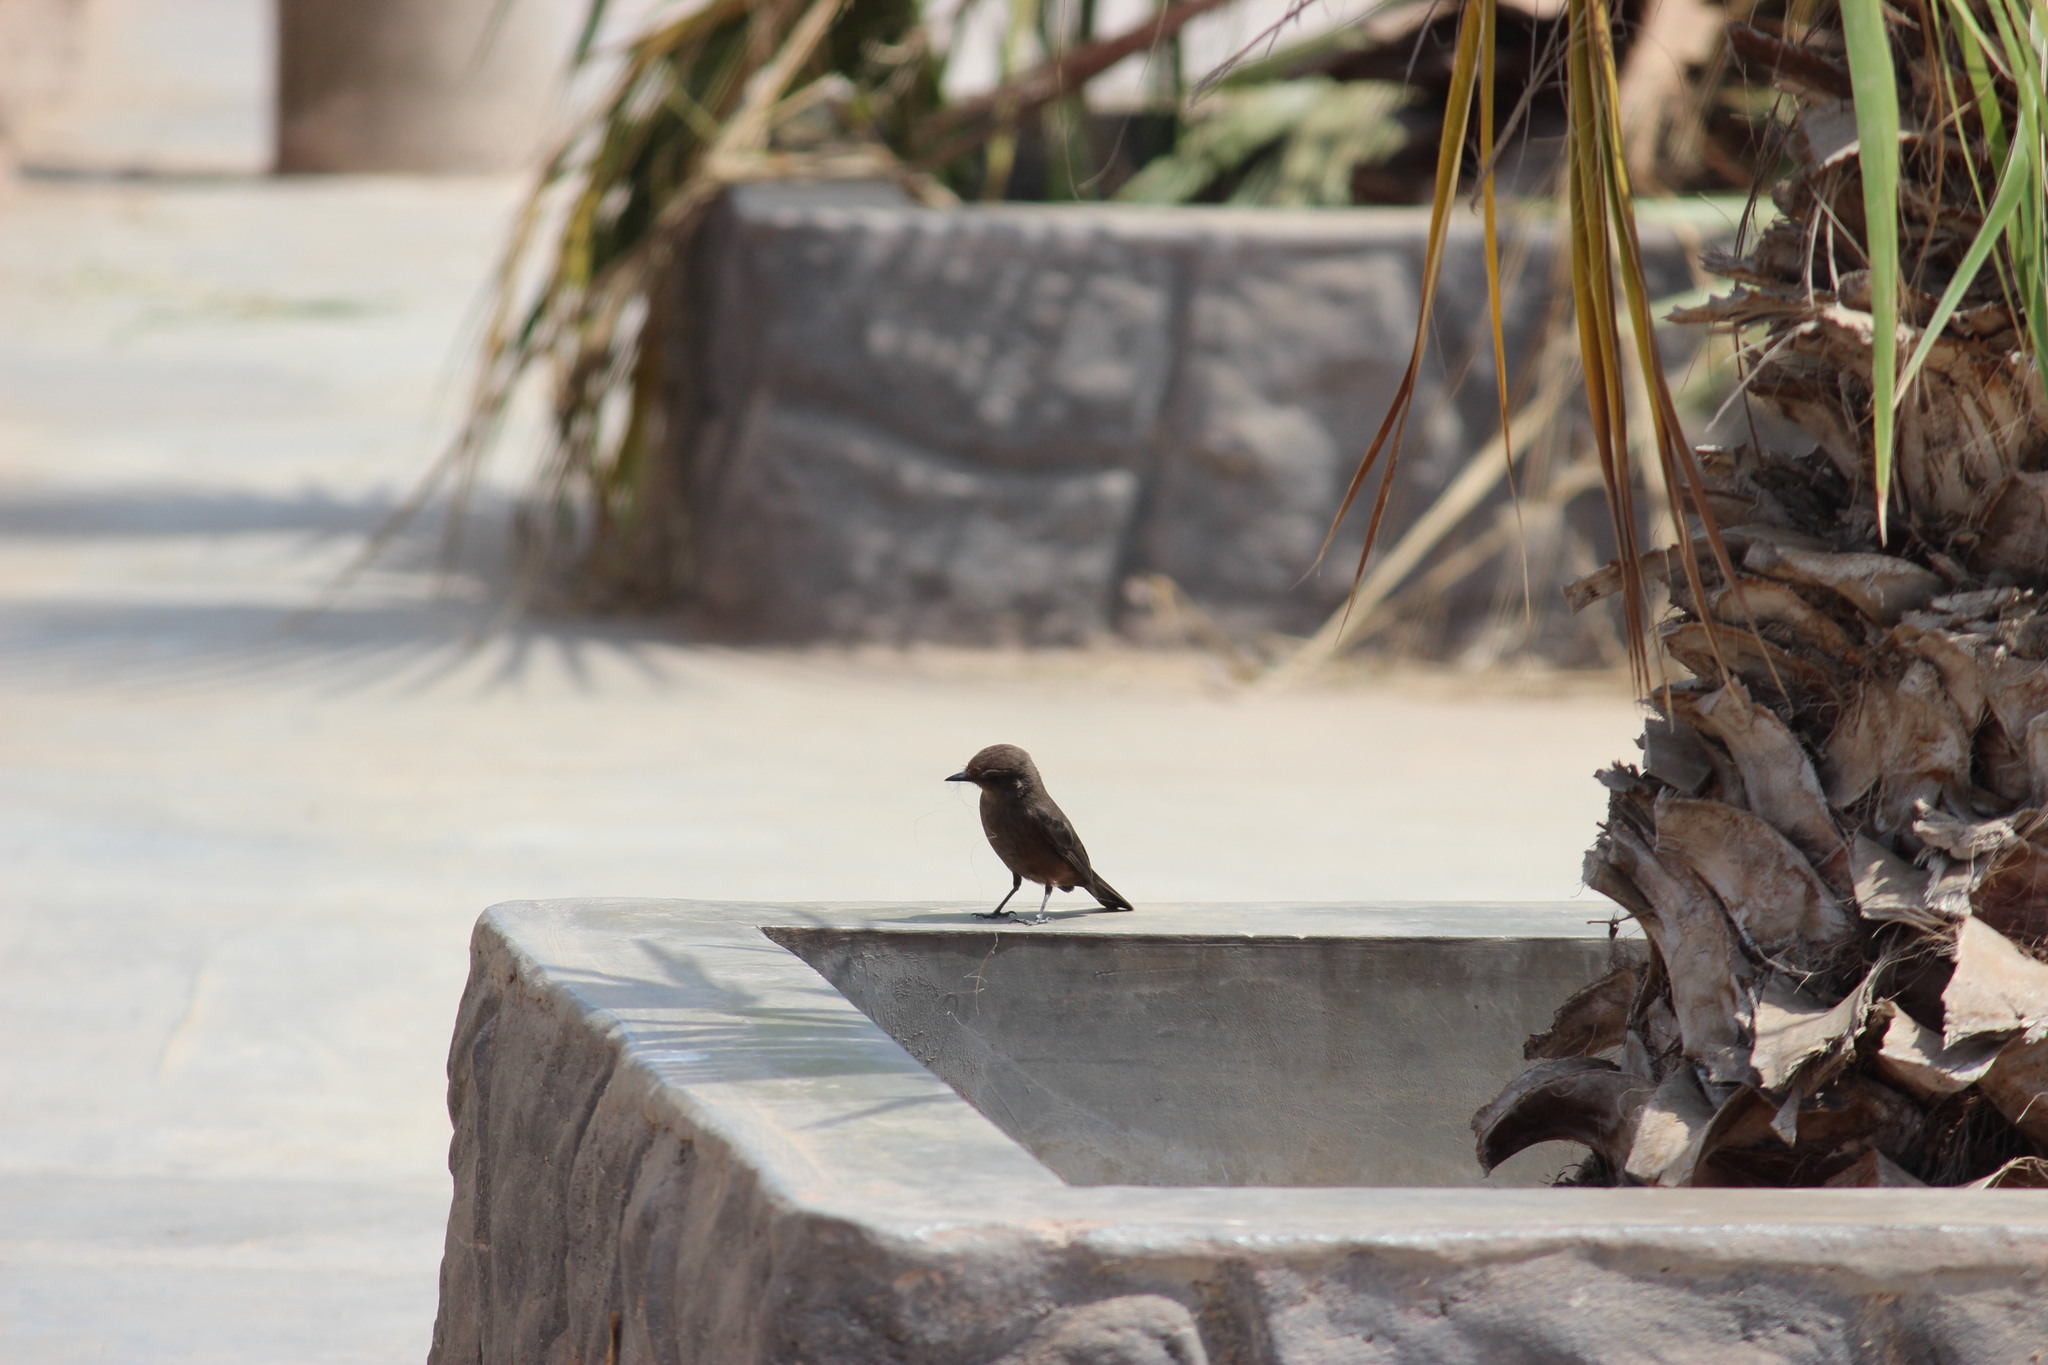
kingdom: Animalia
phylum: Chordata
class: Aves
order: Passeriformes
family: Tyrannidae
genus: Pyrocephalus
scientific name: Pyrocephalus rubinus
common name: Vermilion flycatcher
